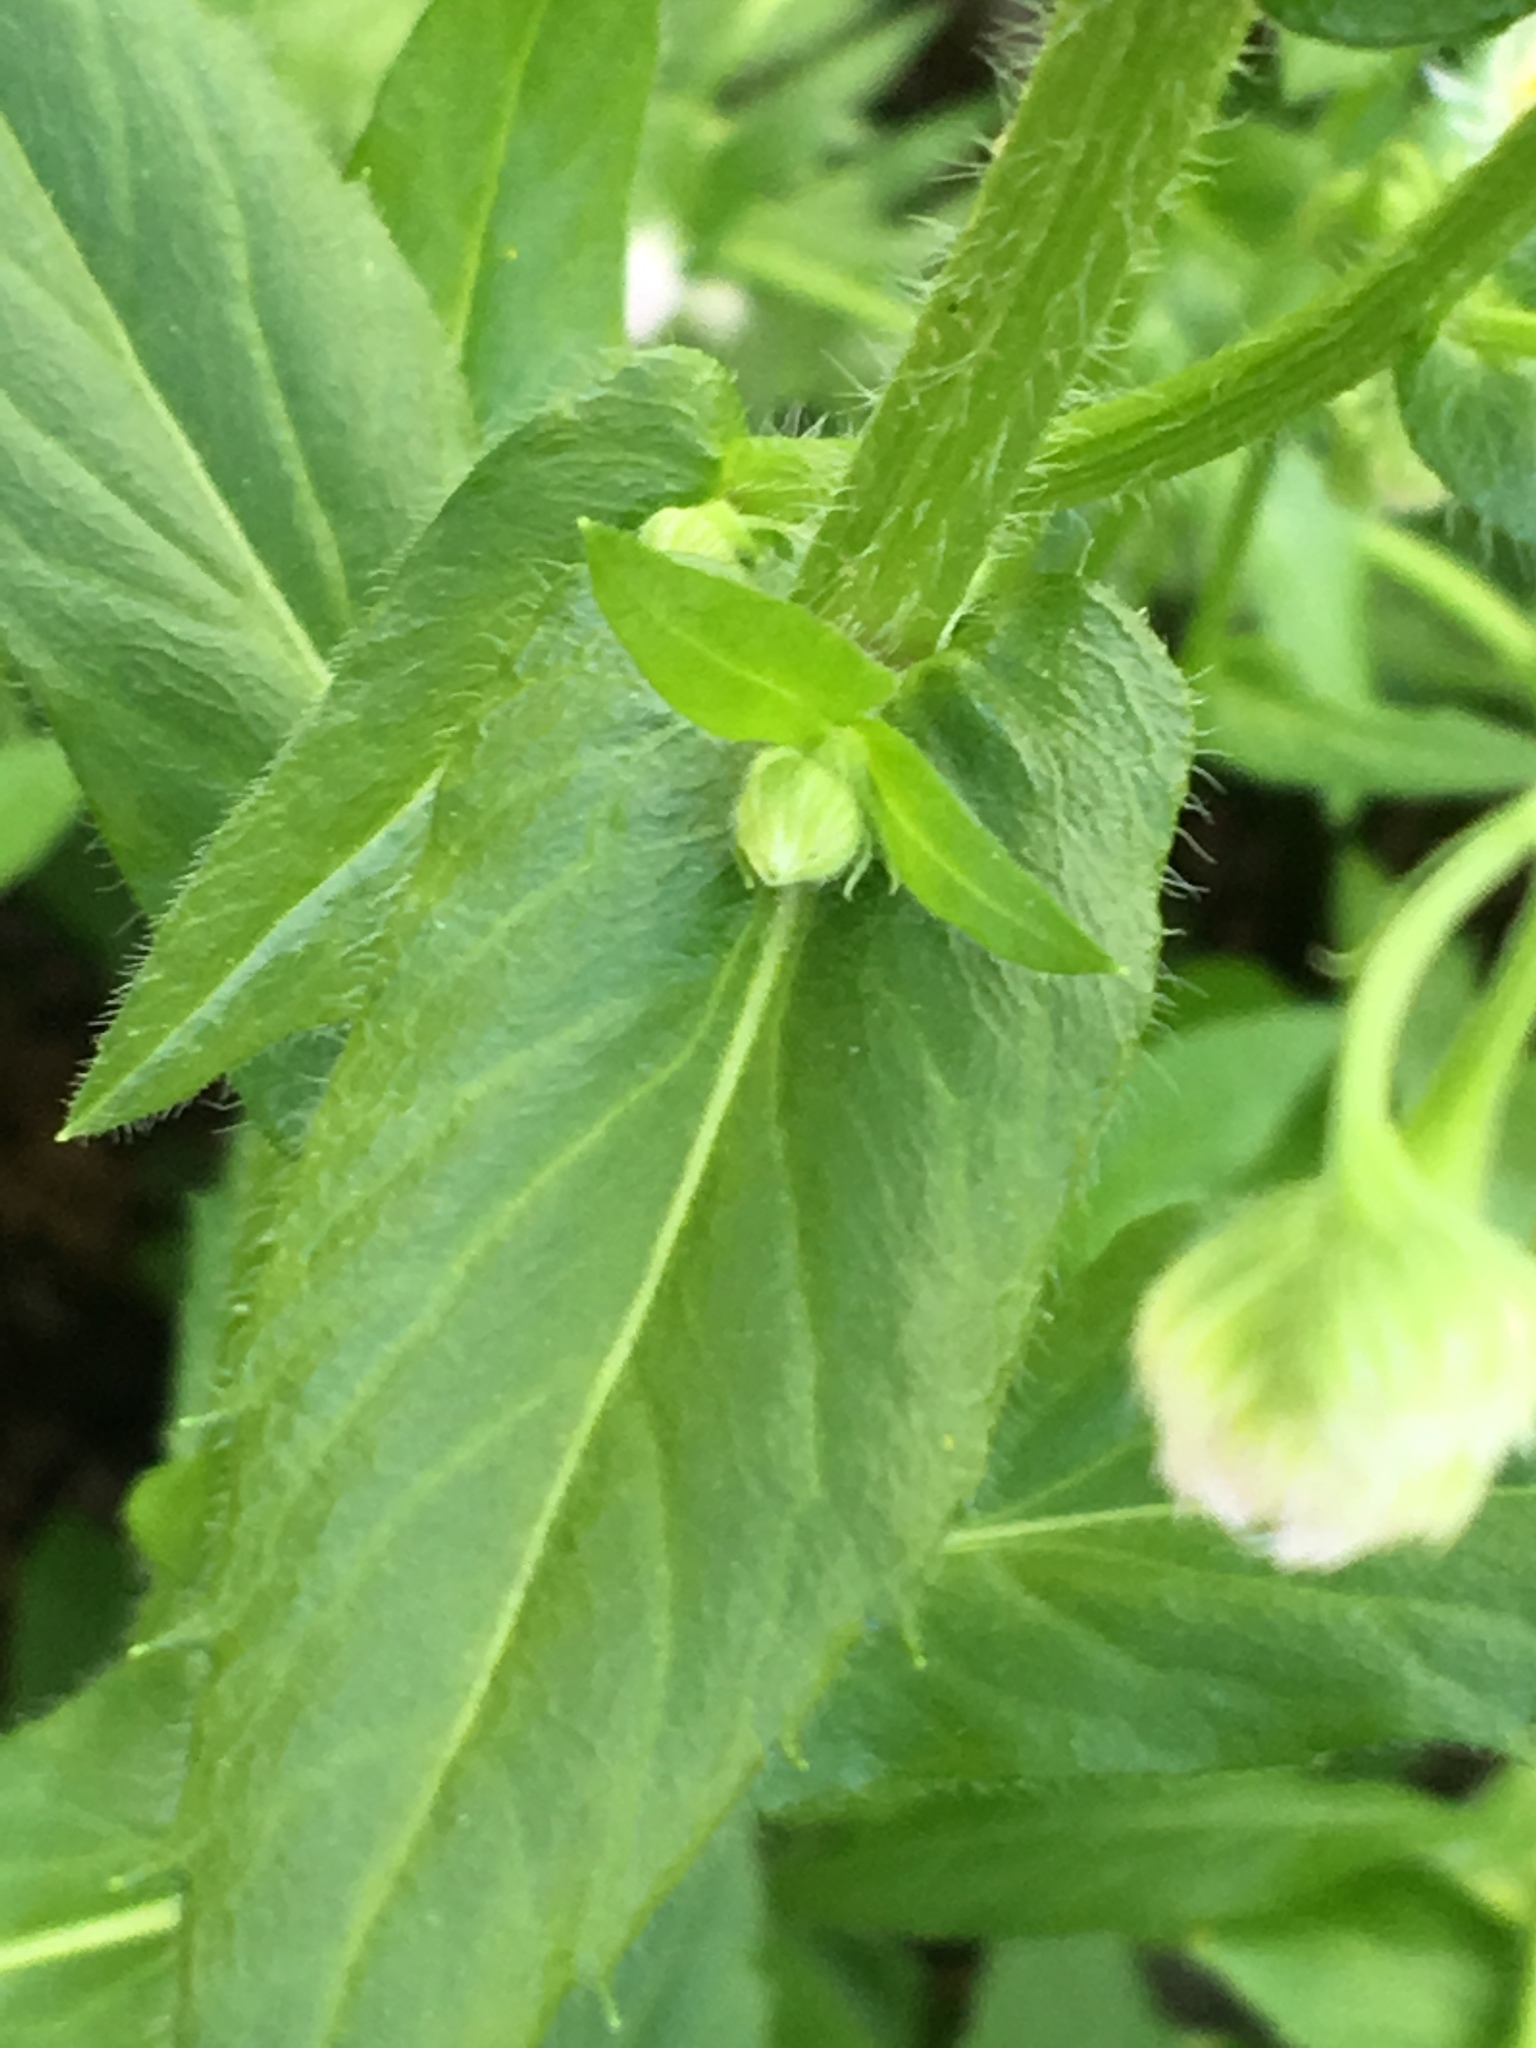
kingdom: Plantae
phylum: Tracheophyta
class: Magnoliopsida
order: Asterales
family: Asteraceae
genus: Erigeron
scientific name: Erigeron philadelphicus
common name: Robin's-plantain
